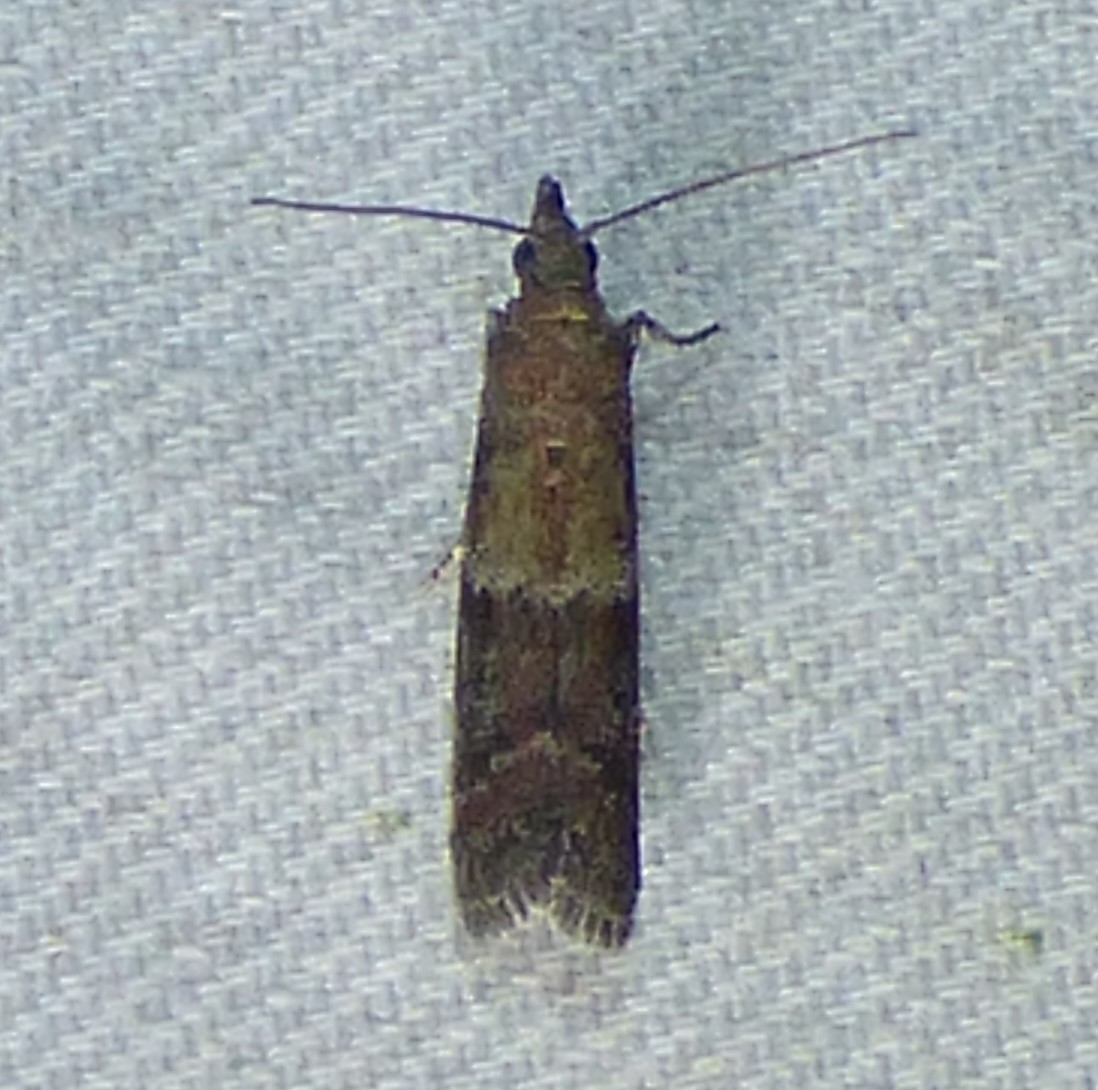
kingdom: Animalia
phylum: Arthropoda
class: Insecta
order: Lepidoptera
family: Pyralidae
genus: Ephestiodes
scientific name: Ephestiodes infimella
